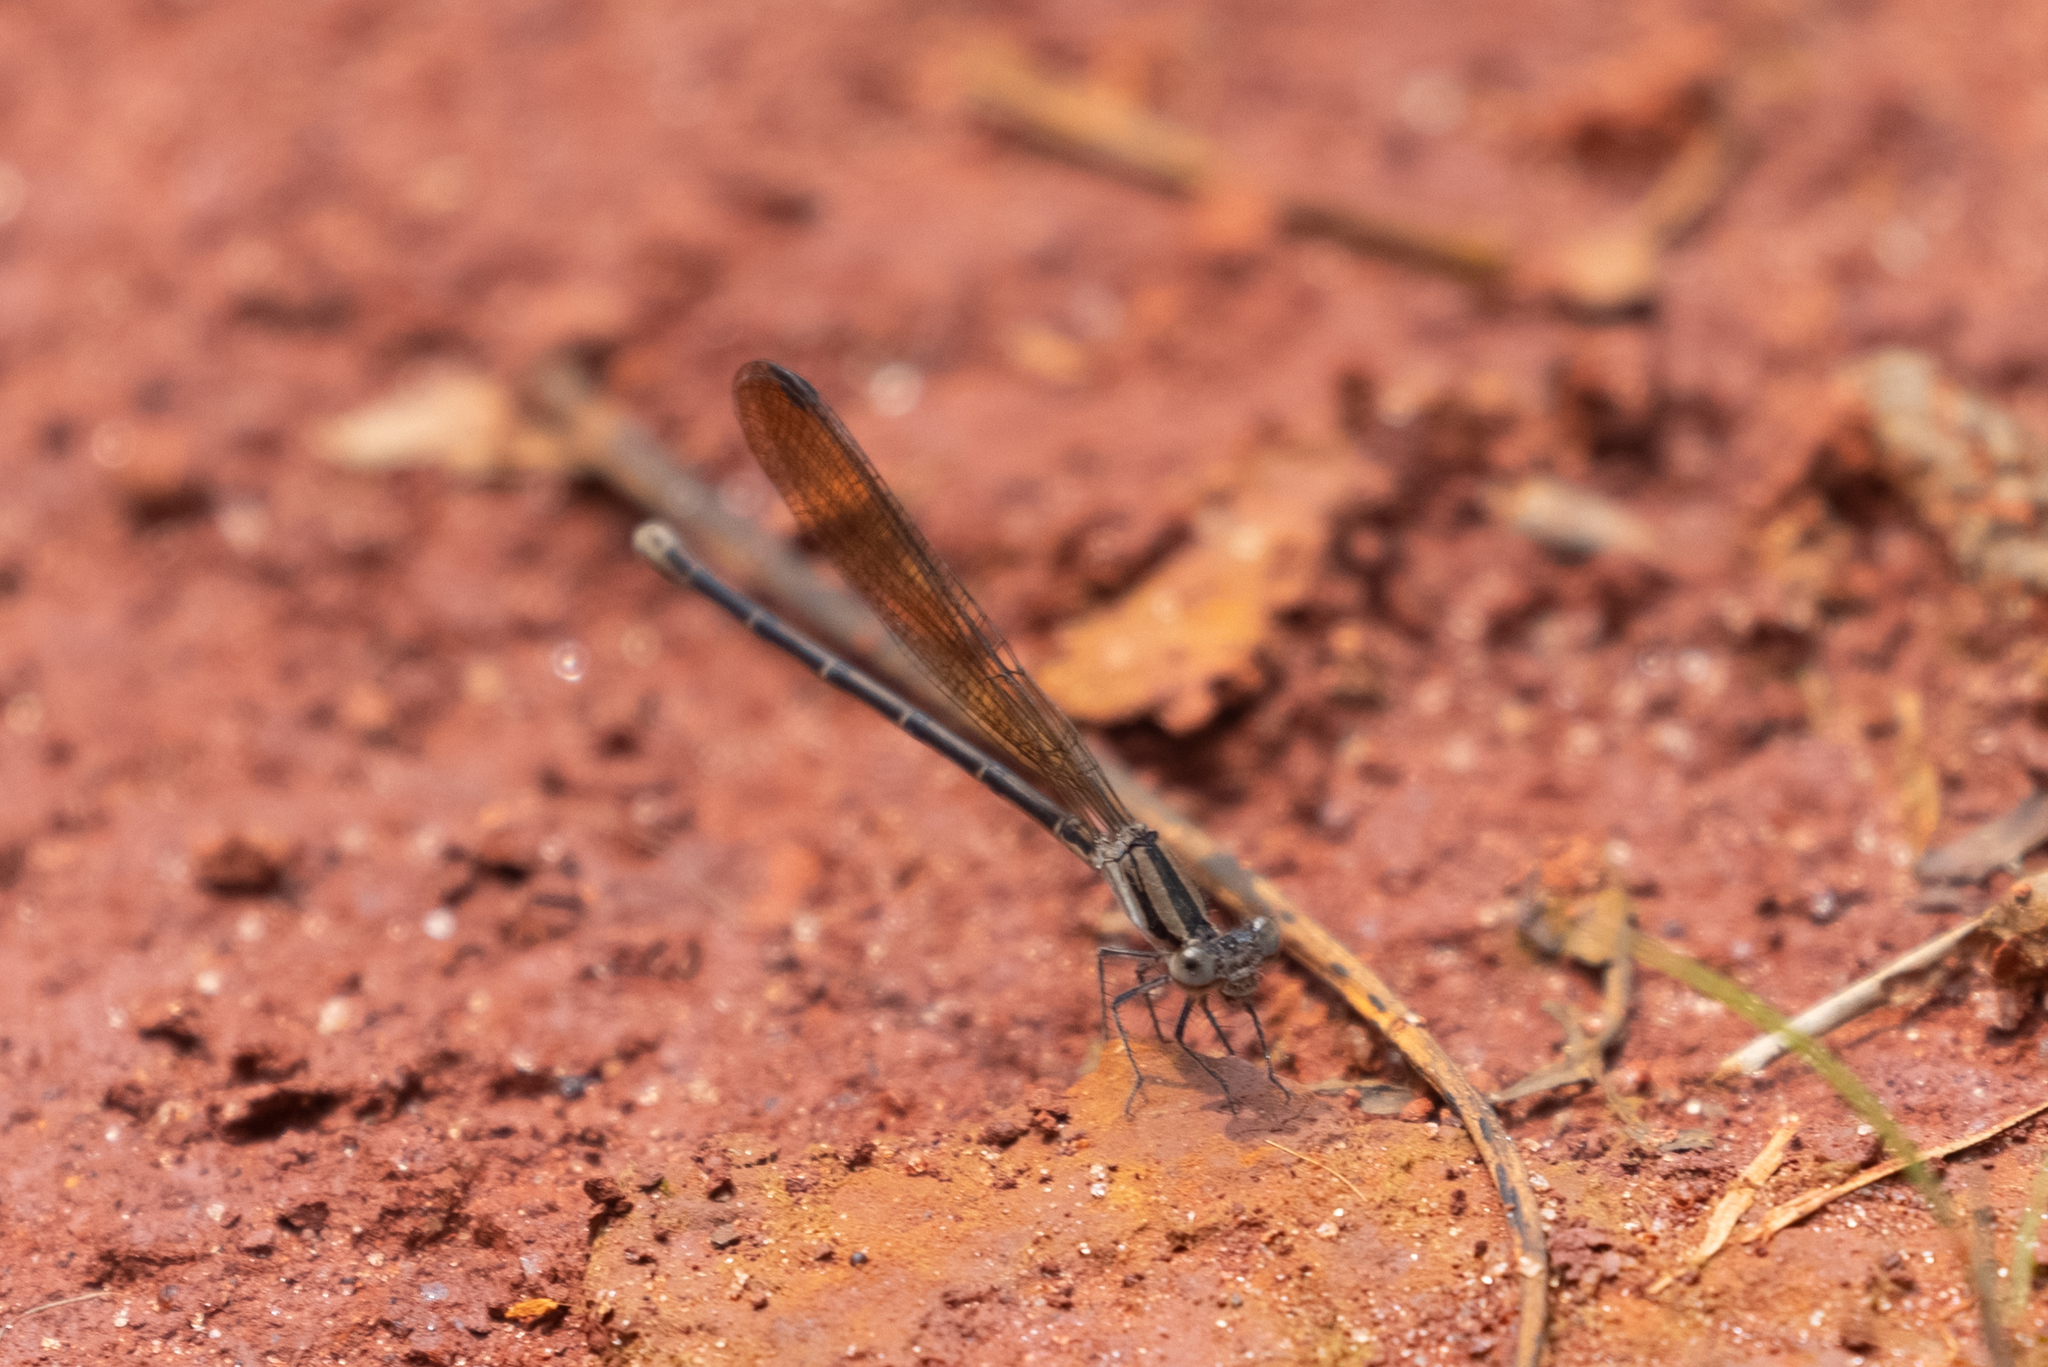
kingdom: Animalia
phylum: Arthropoda
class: Insecta
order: Odonata
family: Coenagrionidae
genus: Argia
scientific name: Argia fumipennis
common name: Variable dancer
